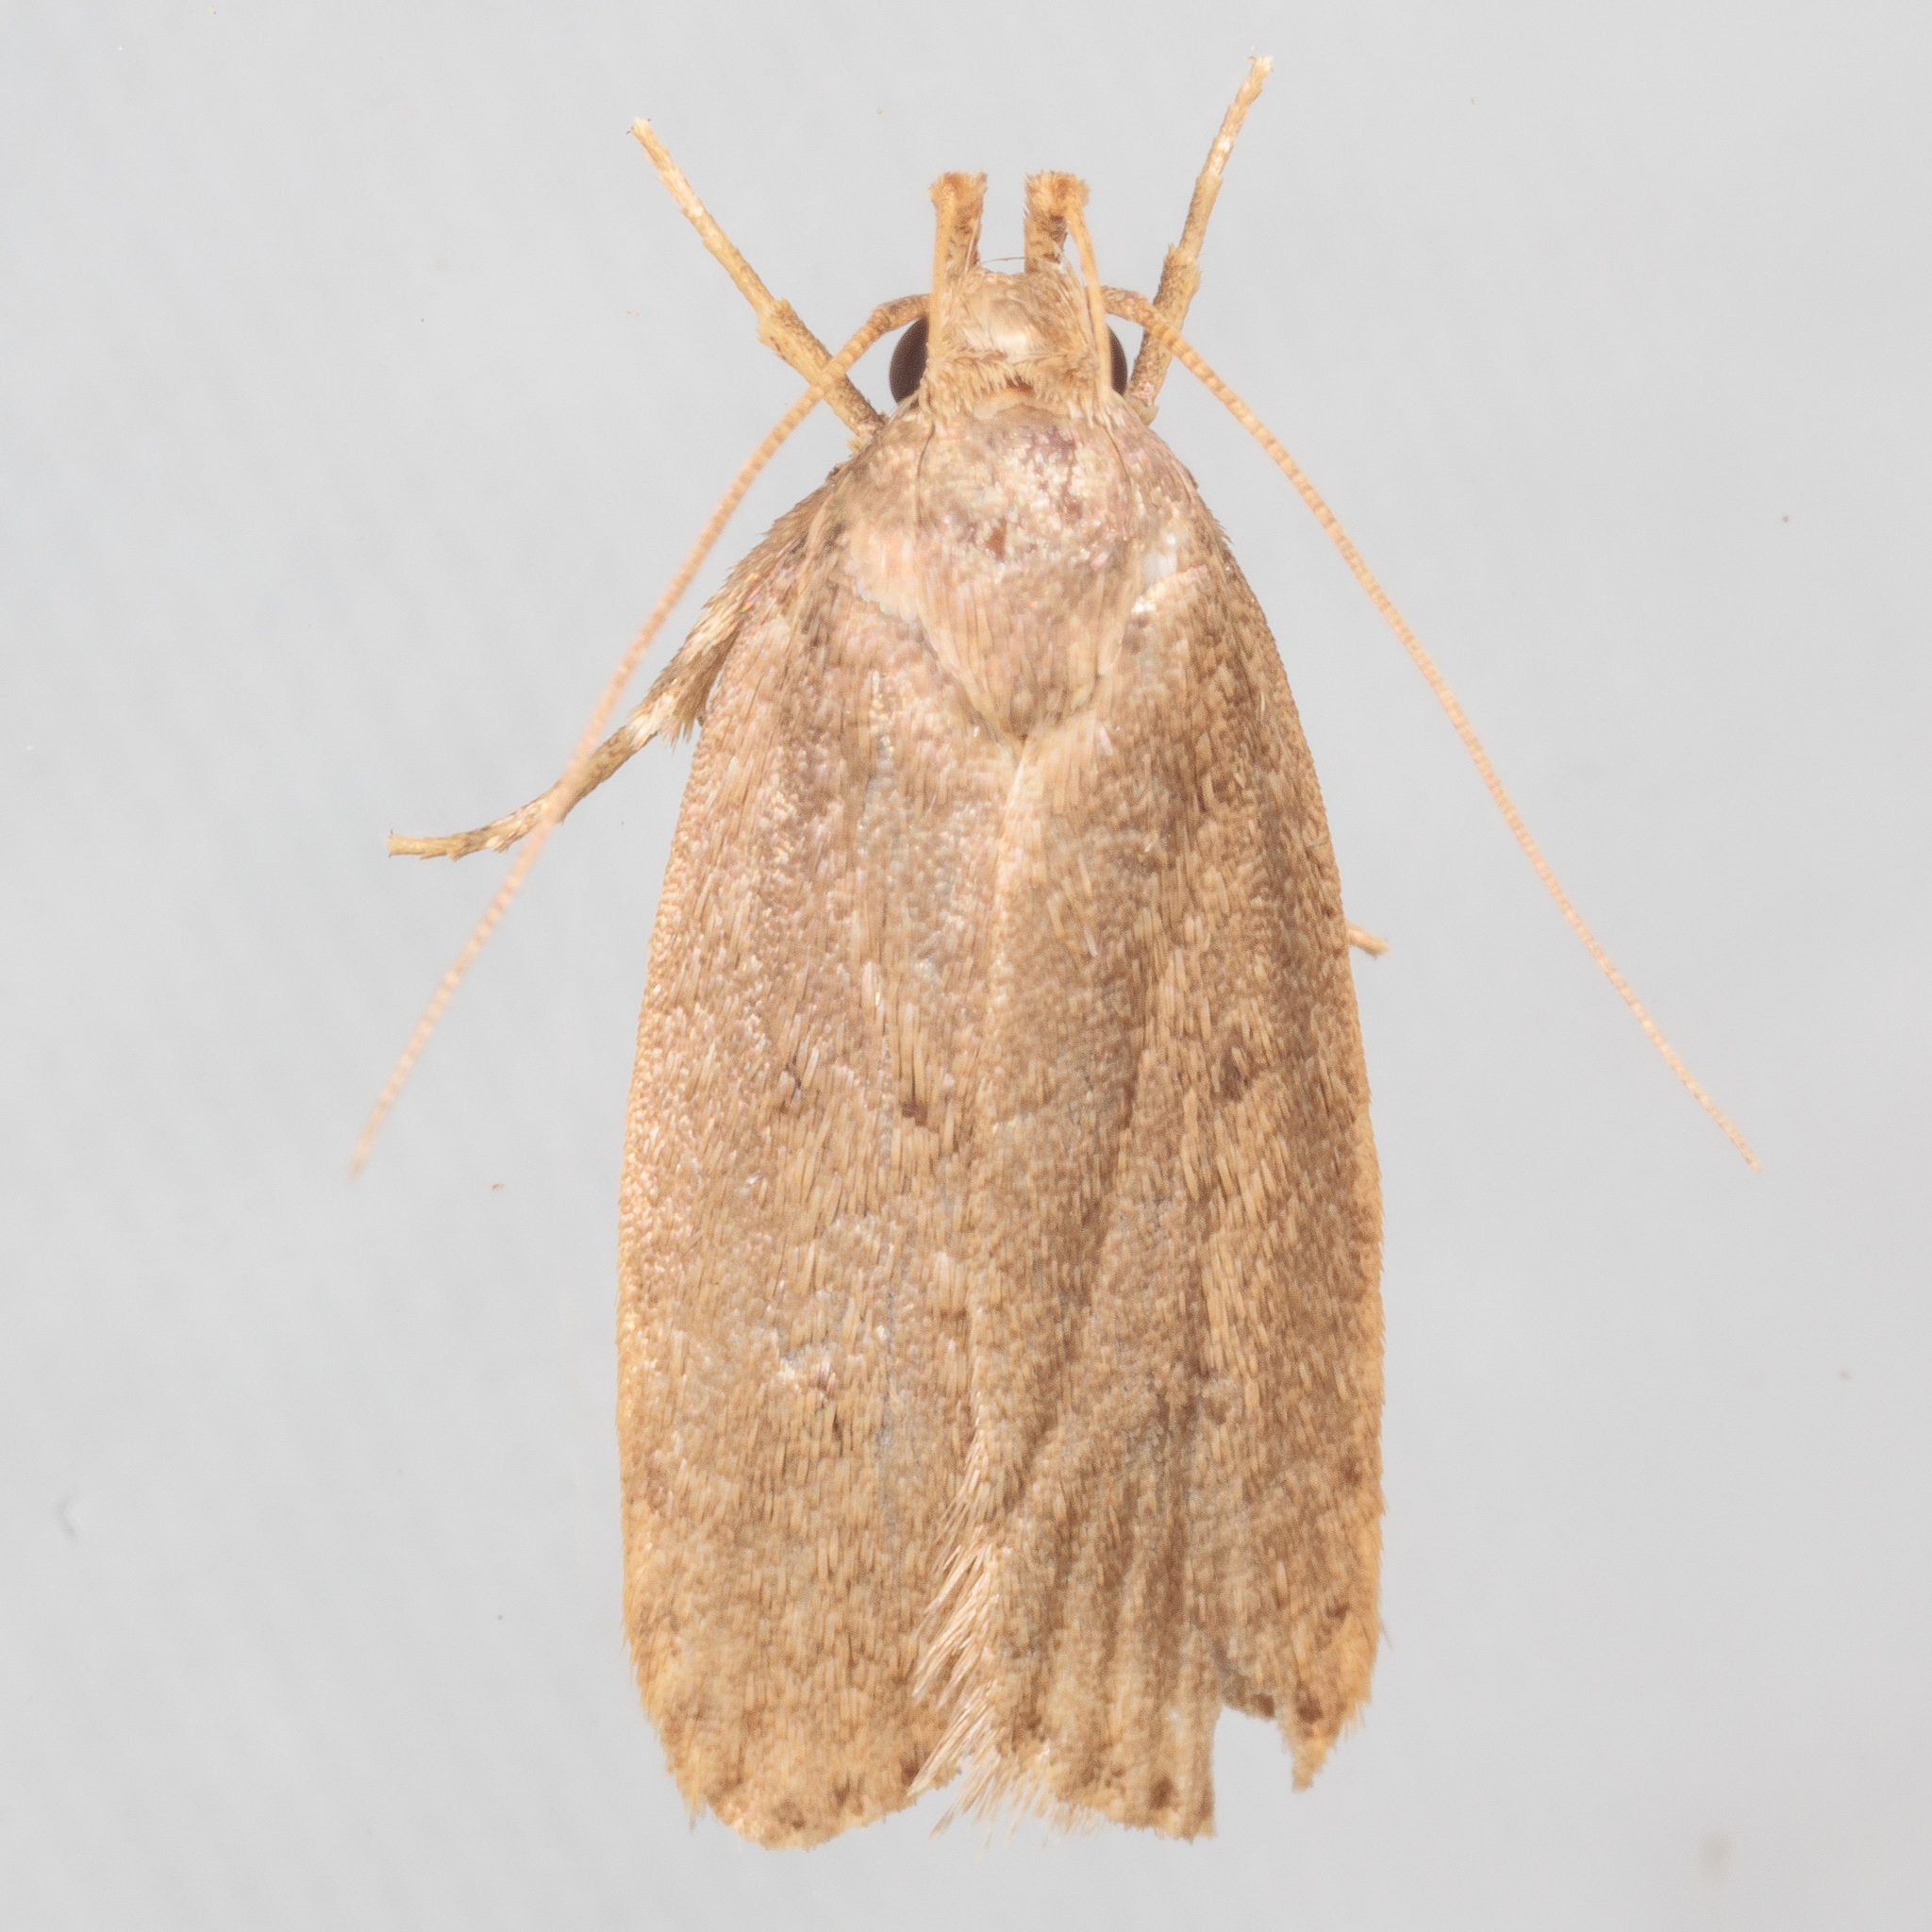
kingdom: Animalia
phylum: Arthropoda
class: Insecta
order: Lepidoptera
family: Autostichidae
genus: Autosticha
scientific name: Autosticha kyotensis
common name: Kyoto moth
